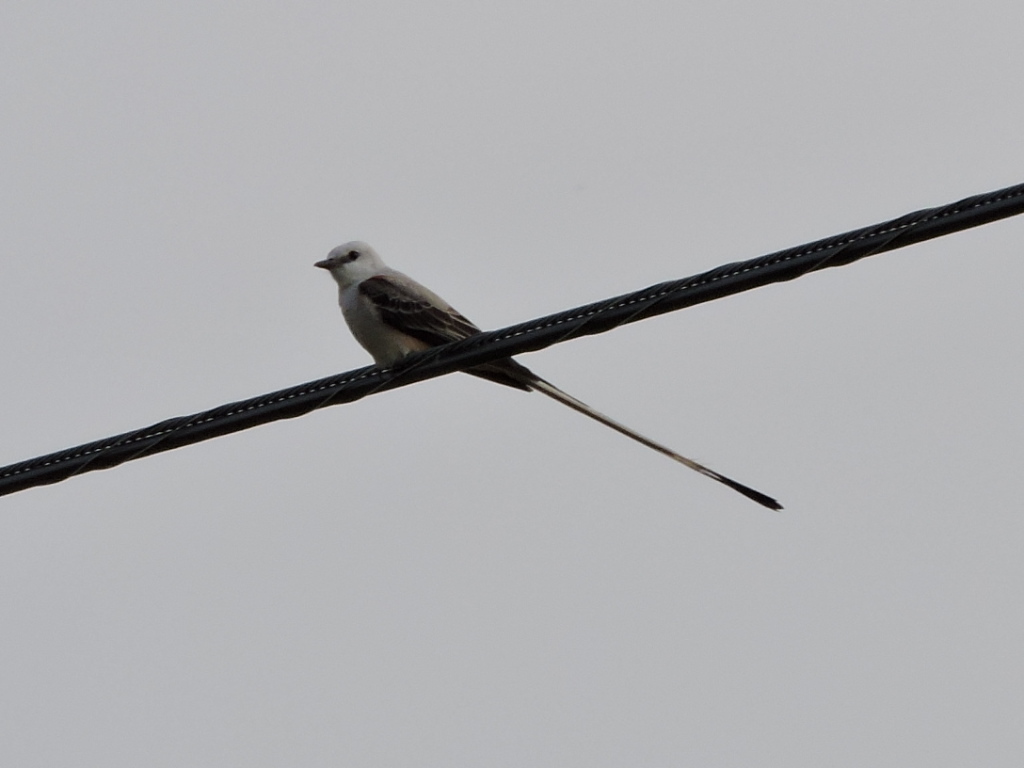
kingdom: Animalia
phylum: Chordata
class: Aves
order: Passeriformes
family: Tyrannidae
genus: Tyrannus
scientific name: Tyrannus forficatus
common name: Scissor-tailed flycatcher
